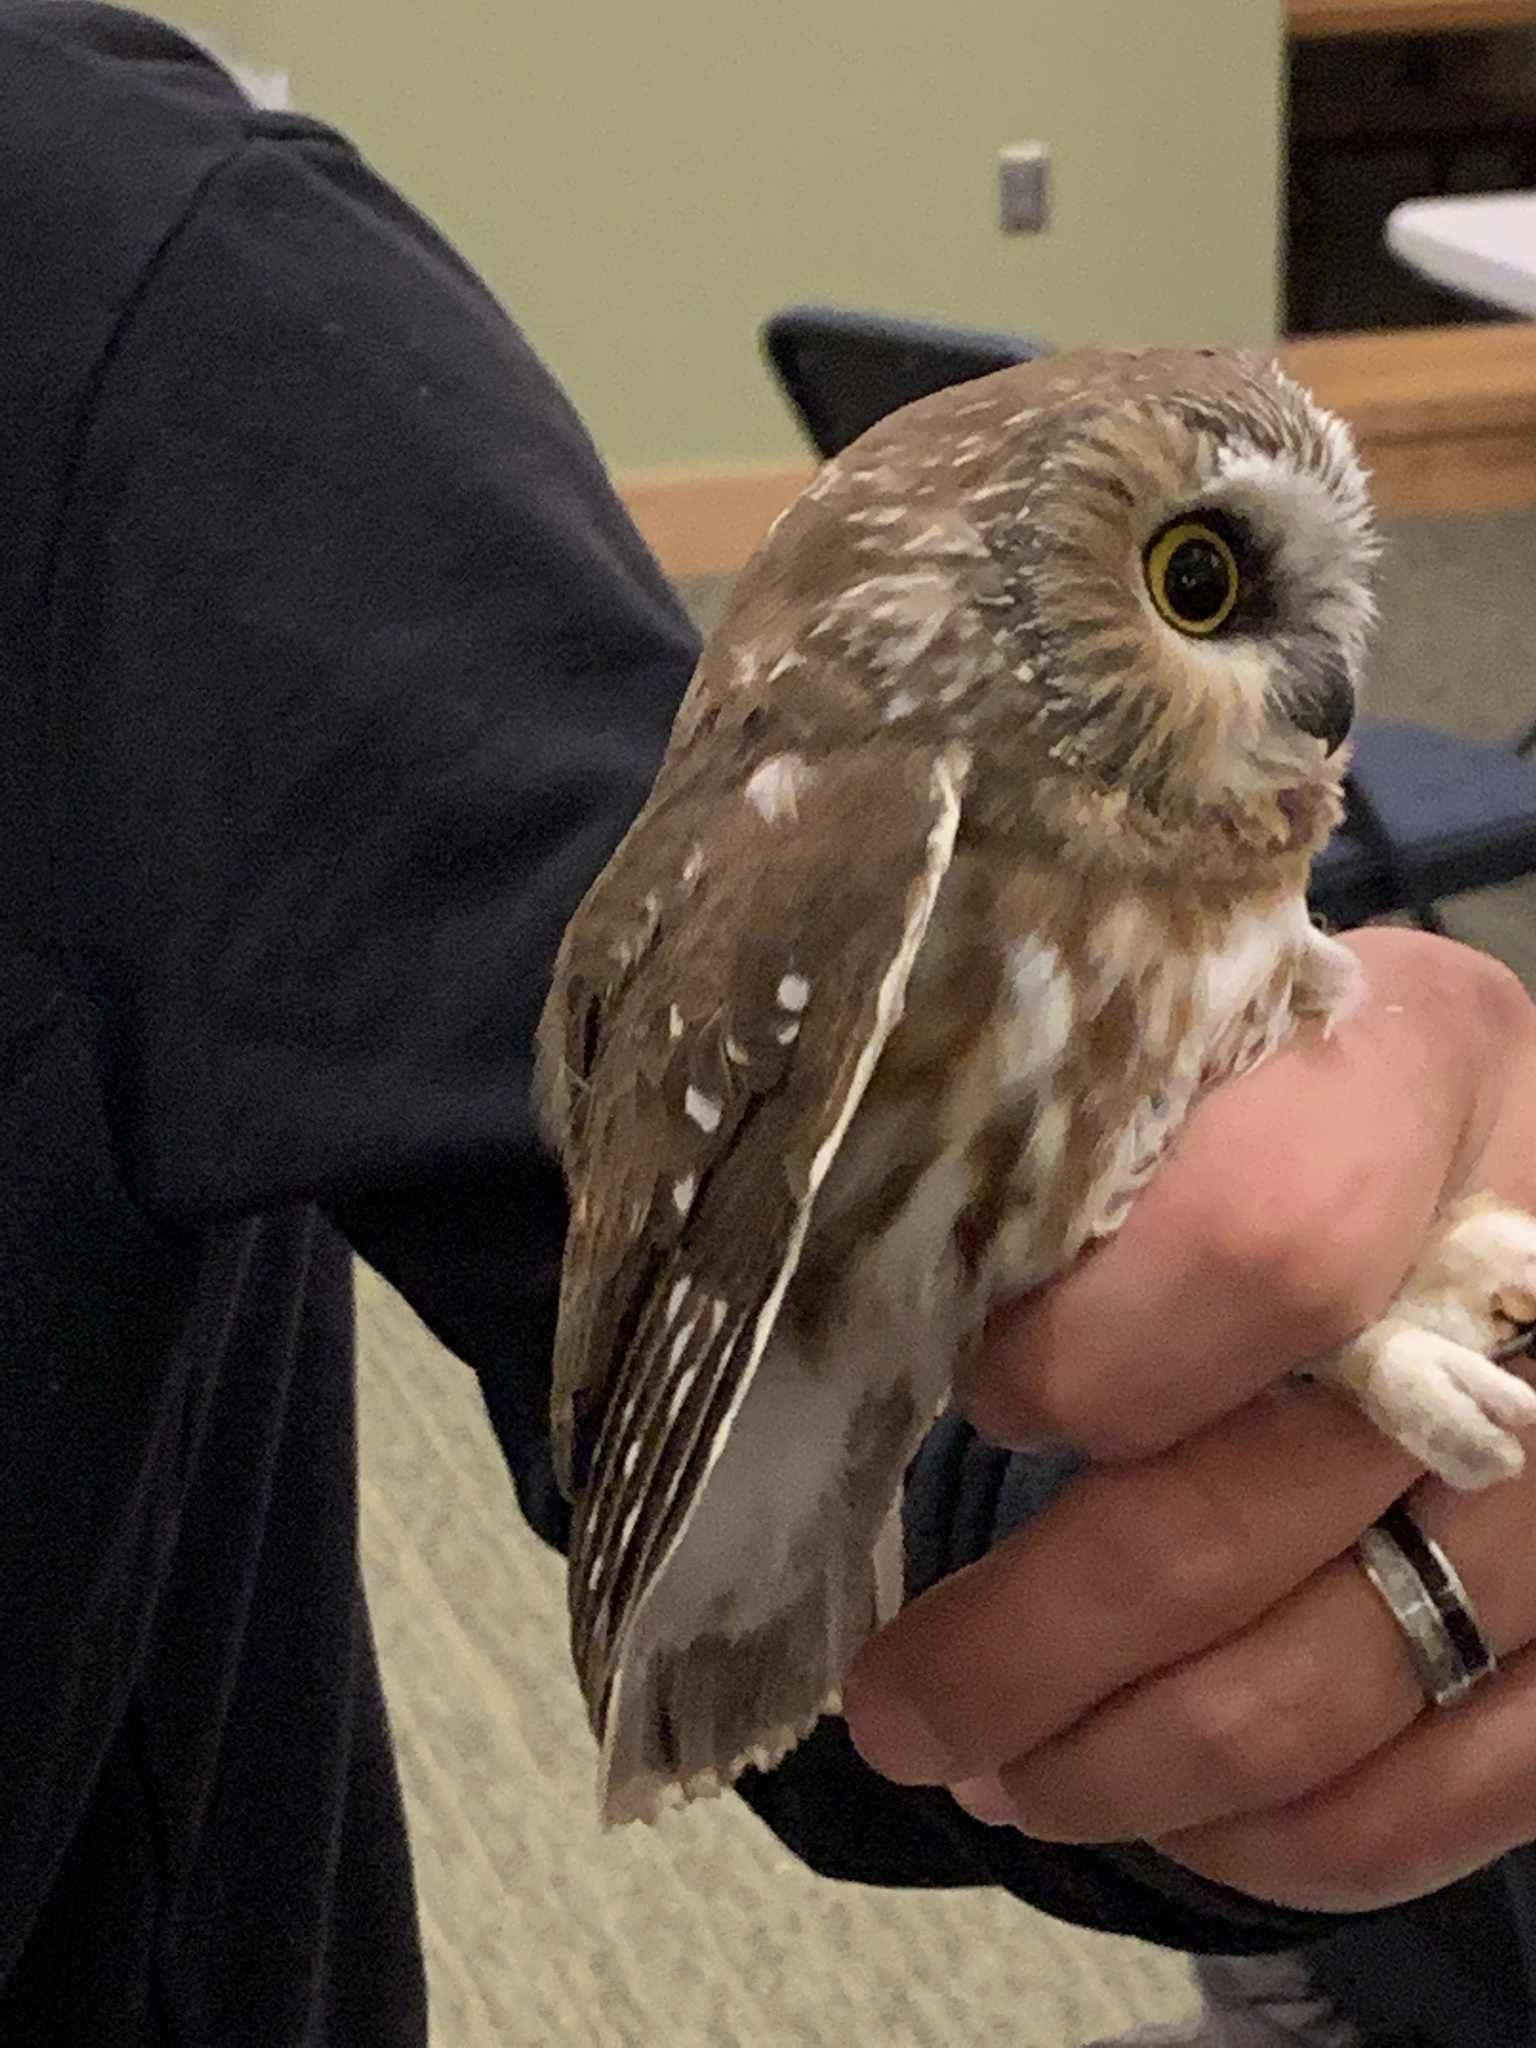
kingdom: Animalia
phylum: Chordata
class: Aves
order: Strigiformes
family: Strigidae
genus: Aegolius
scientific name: Aegolius acadicus
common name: Northern saw-whet owl
